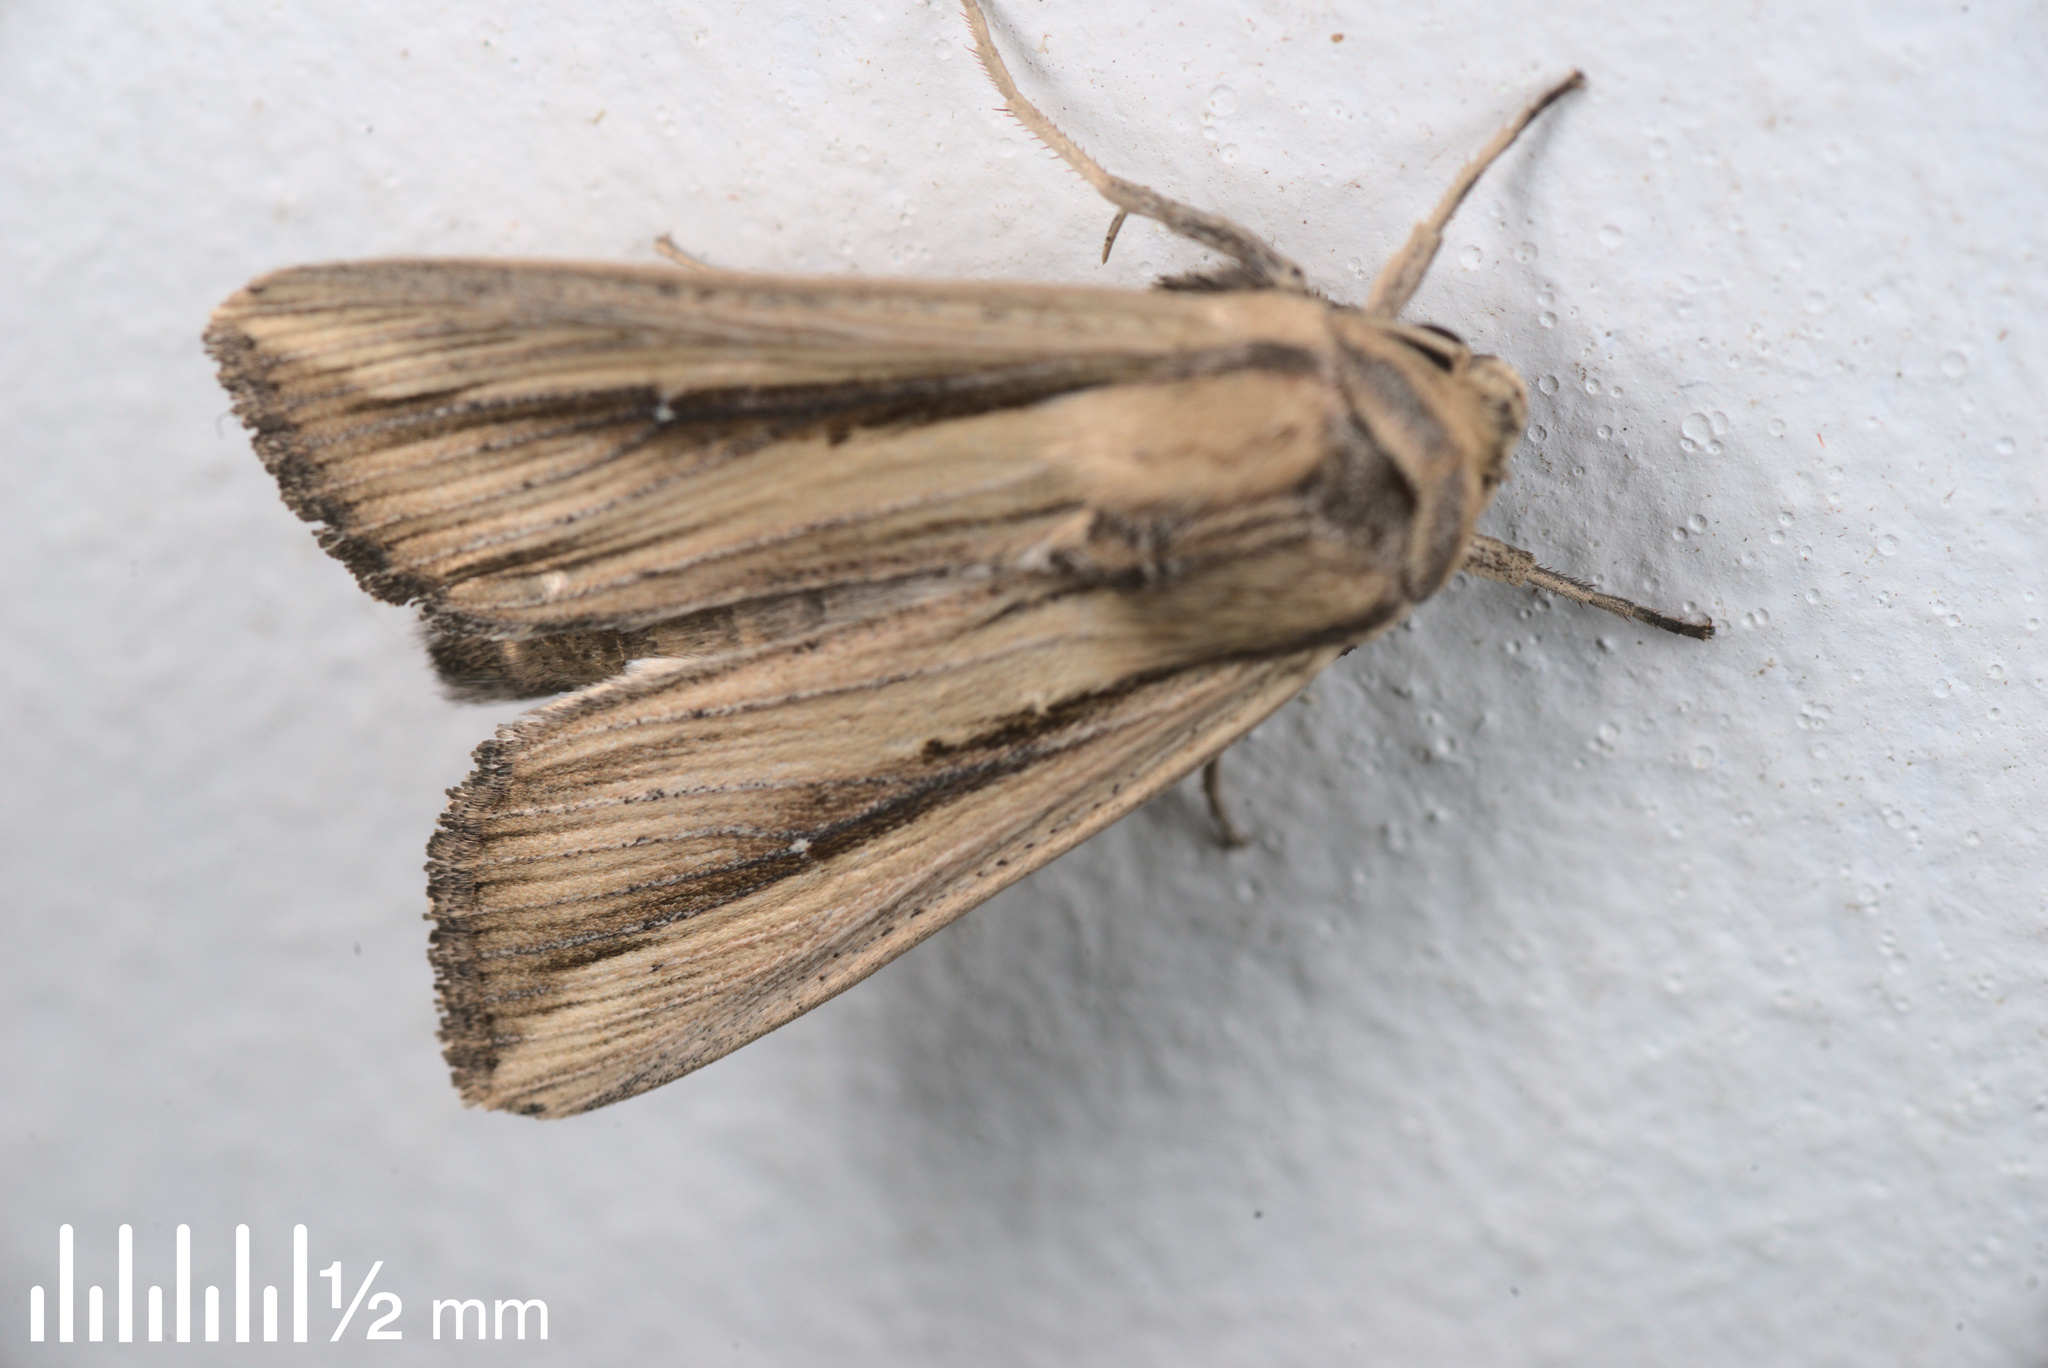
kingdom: Animalia
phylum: Arthropoda
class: Insecta
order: Lepidoptera
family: Noctuidae
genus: Leucania
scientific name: Leucania stenographa
